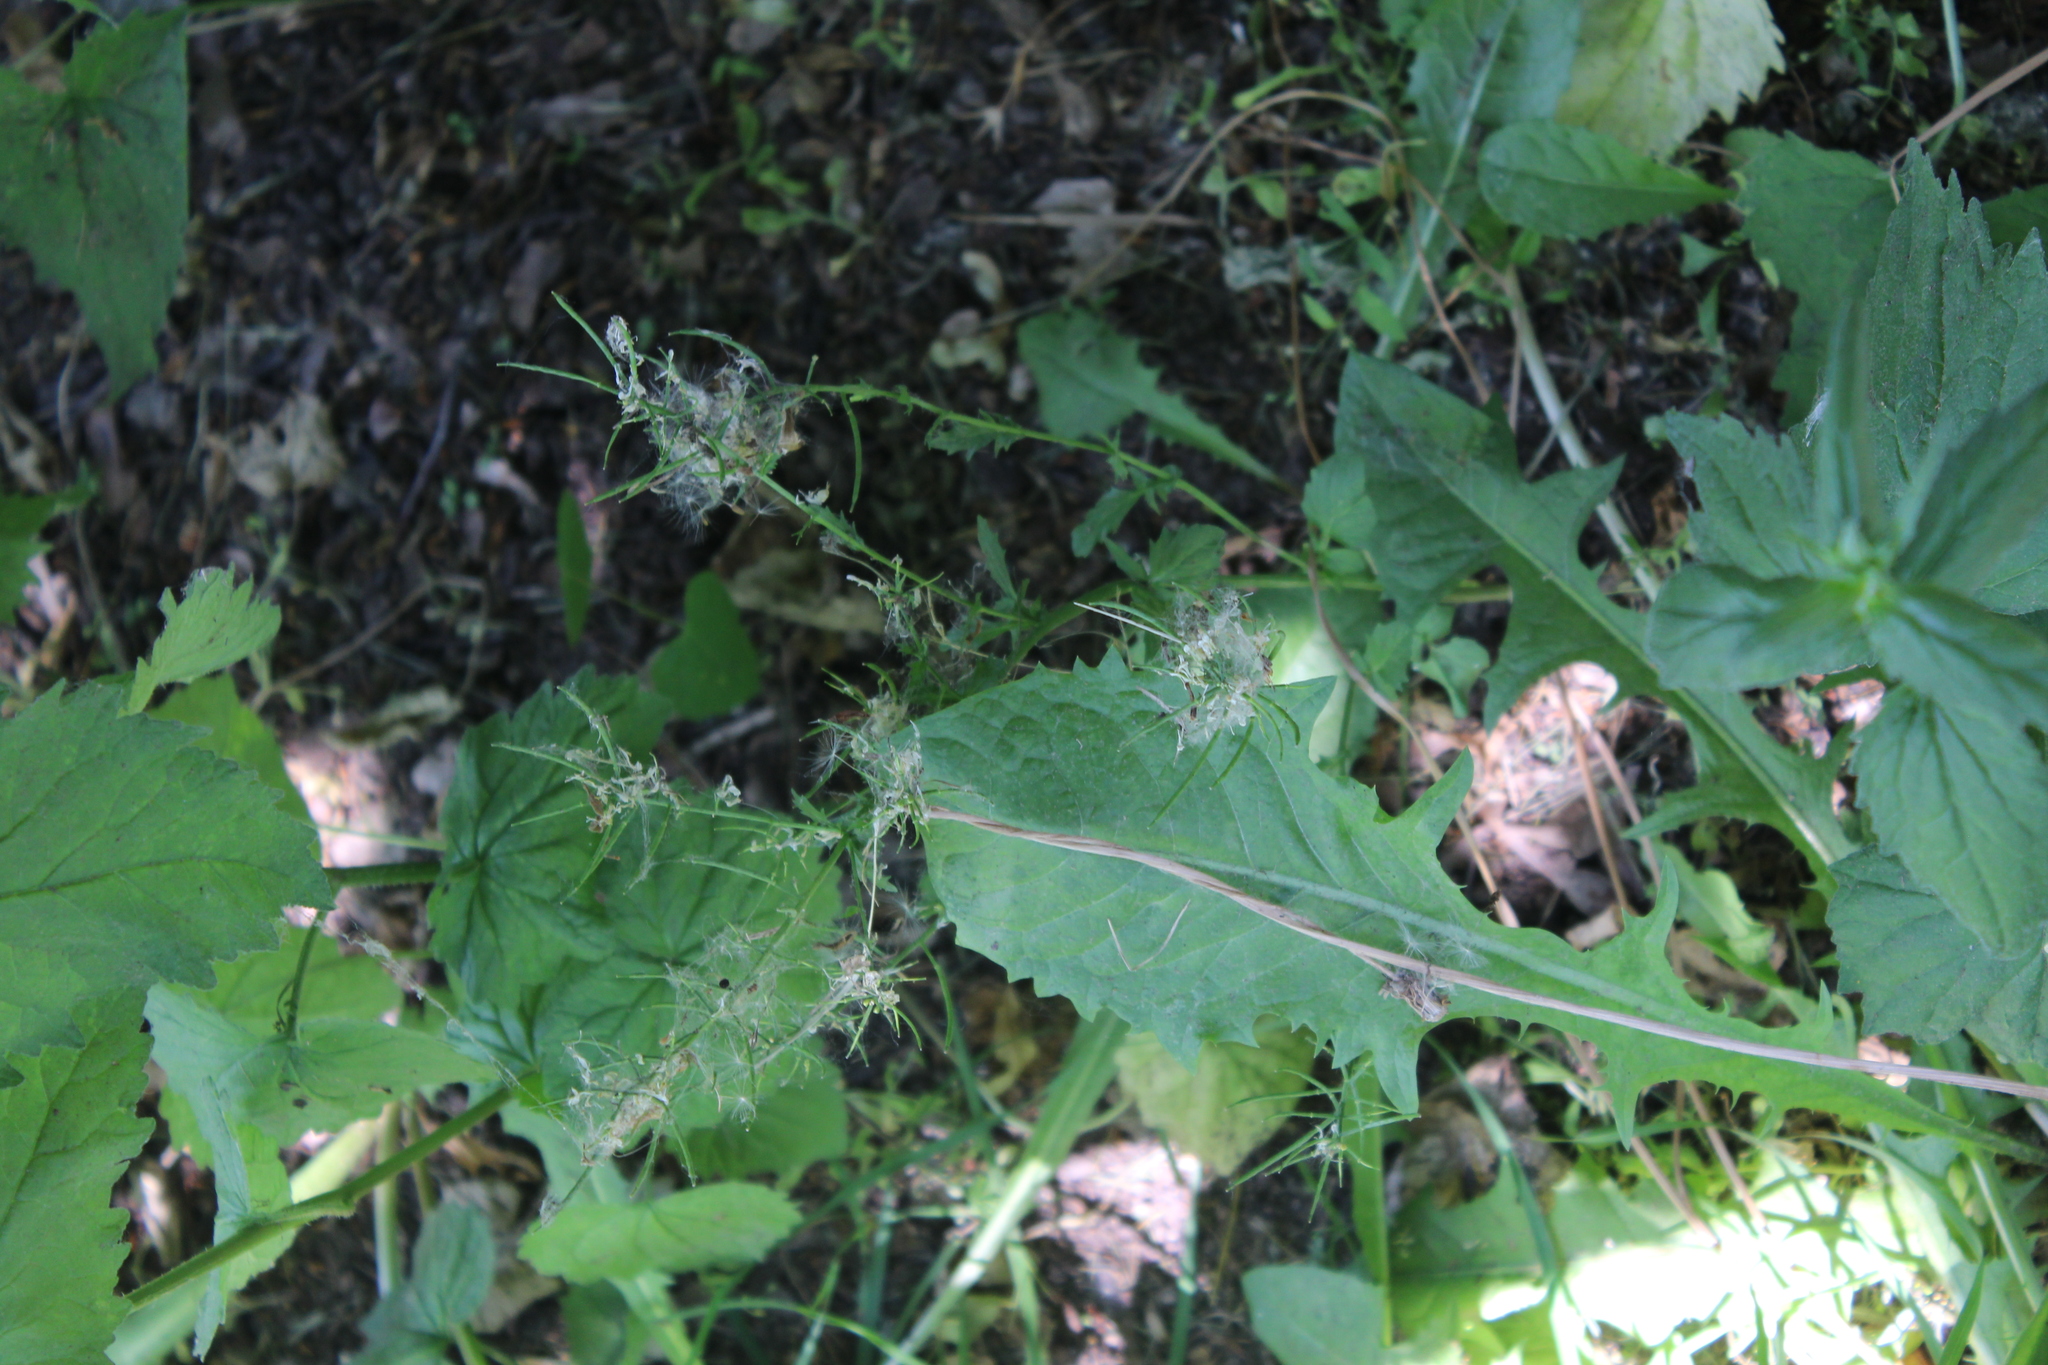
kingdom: Plantae
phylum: Tracheophyta
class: Magnoliopsida
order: Brassicales
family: Brassicaceae
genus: Barbarea
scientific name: Barbarea vulgaris
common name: Cressy-greens
